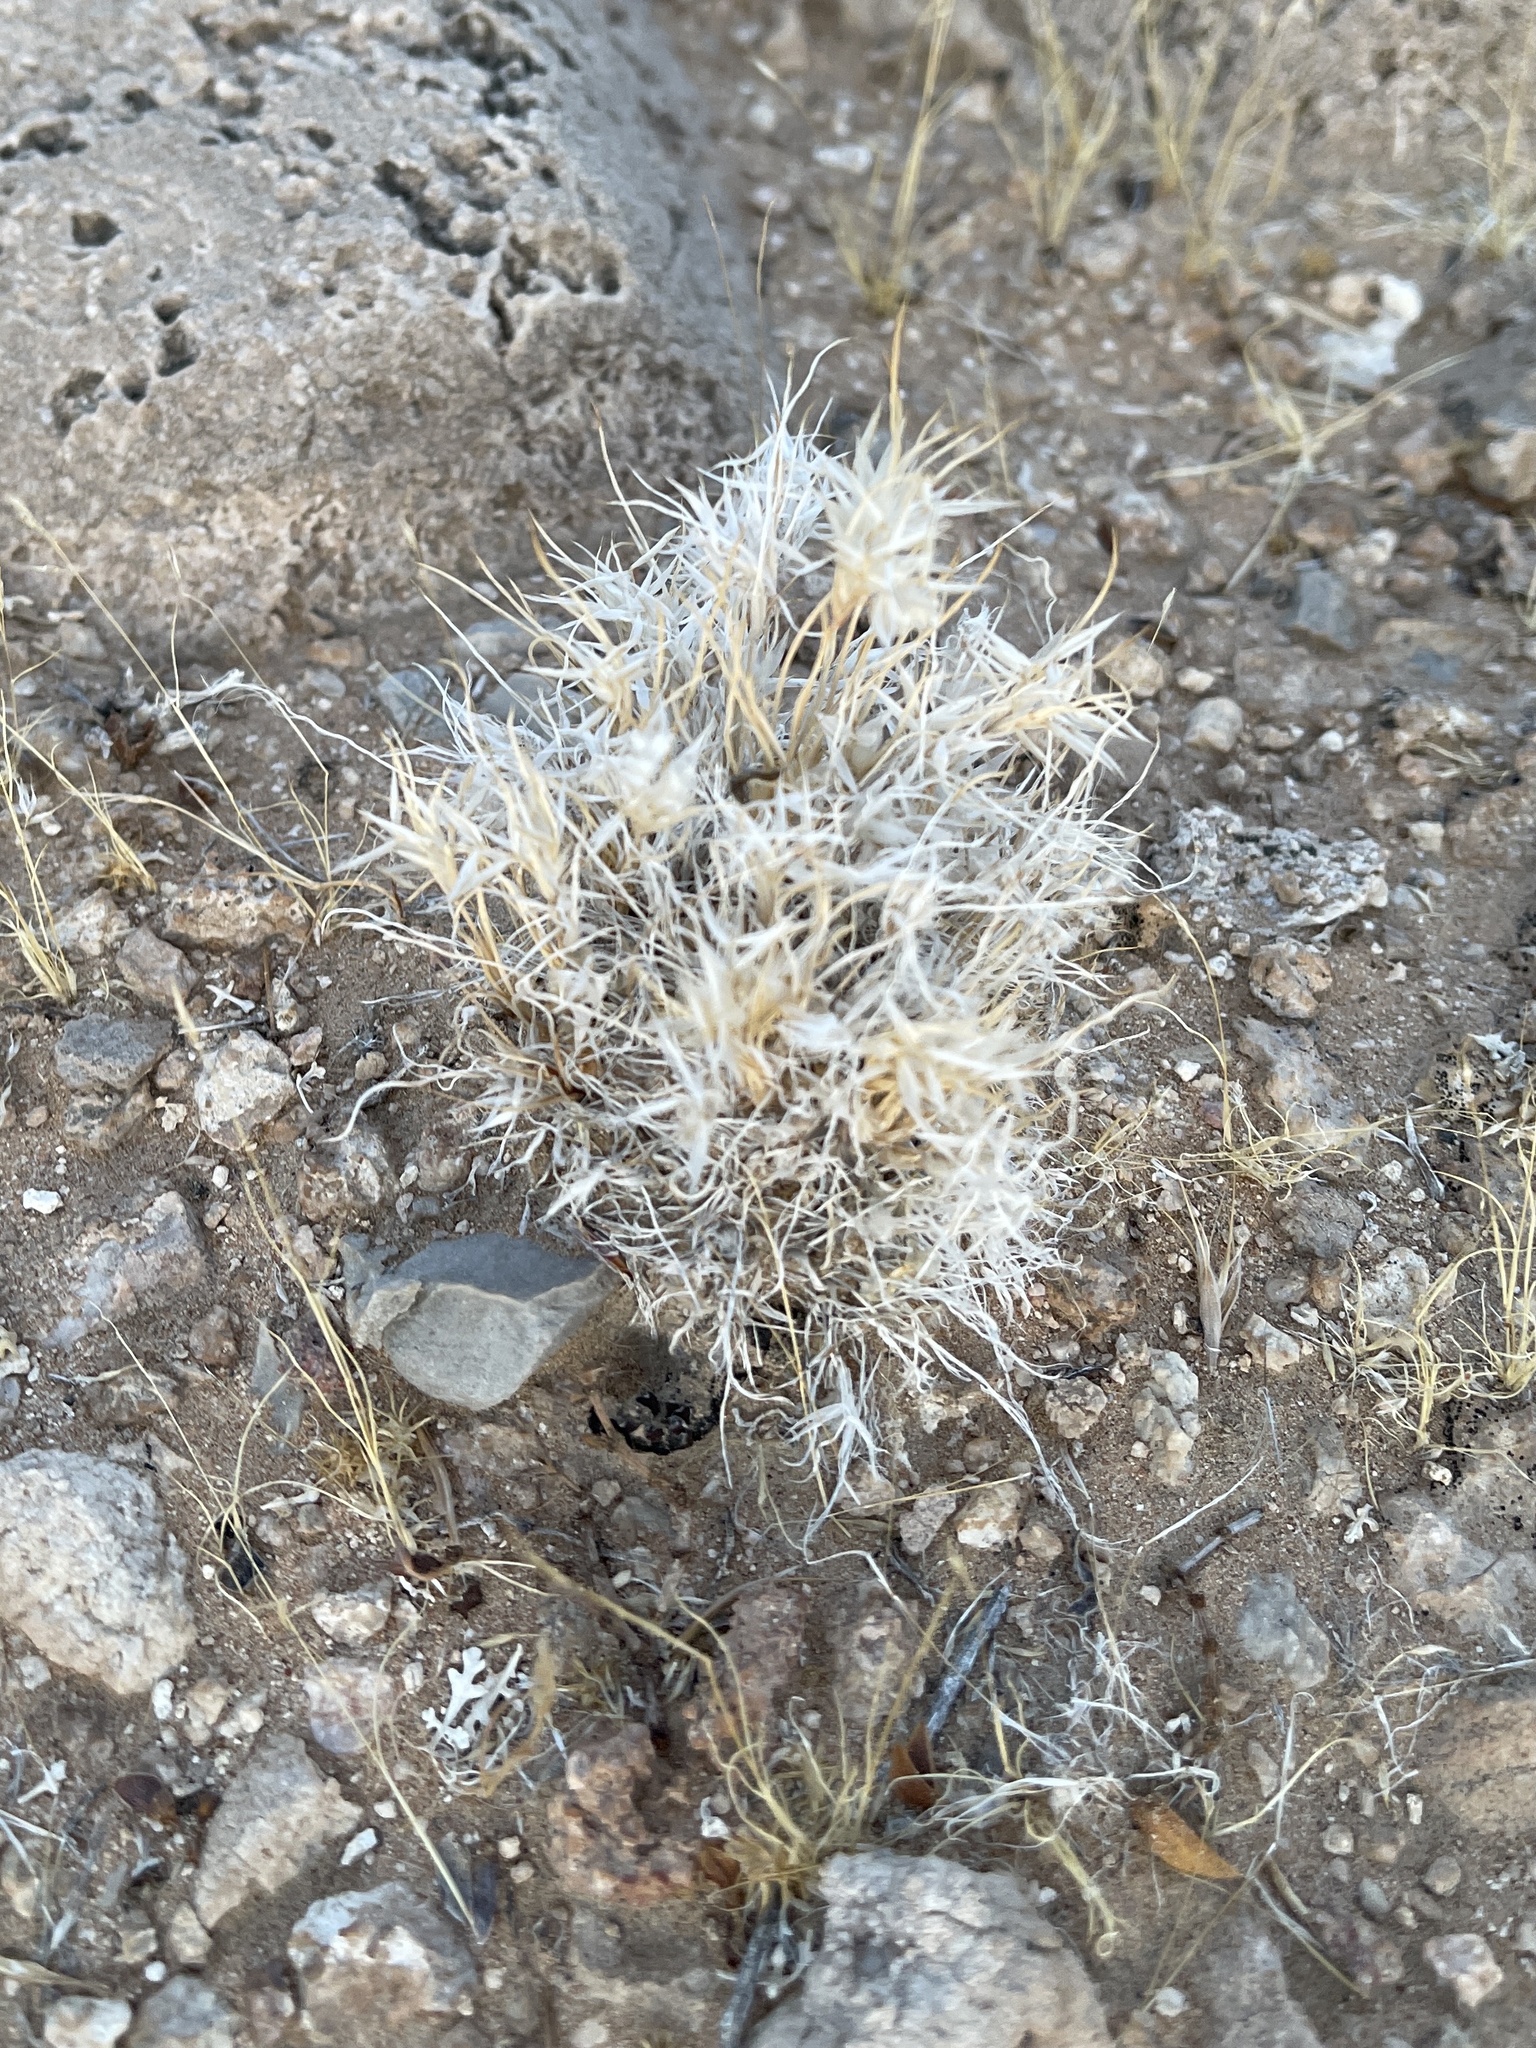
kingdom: Plantae
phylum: Tracheophyta
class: Liliopsida
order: Poales
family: Poaceae
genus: Dasyochloa
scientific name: Dasyochloa pulchella
